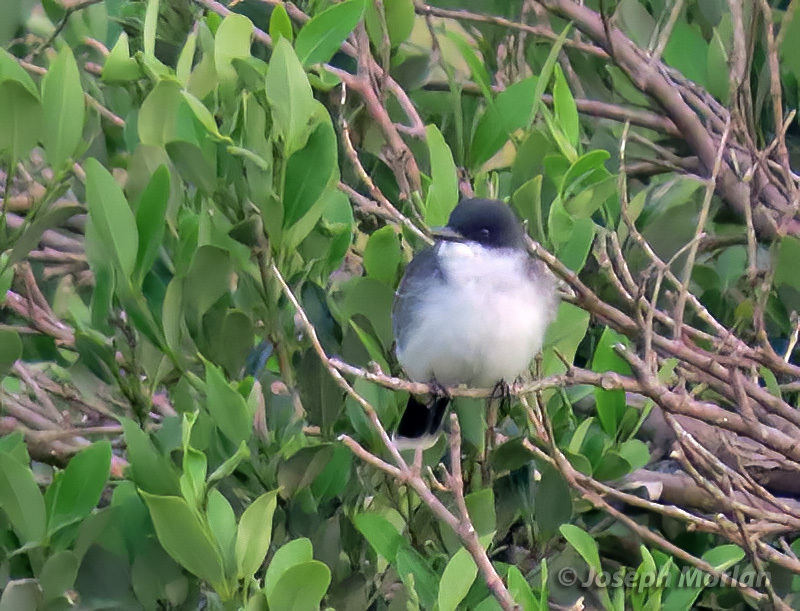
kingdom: Animalia
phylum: Chordata
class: Aves
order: Passeriformes
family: Tyrannidae
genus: Tyrannus
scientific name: Tyrannus tyrannus
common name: Eastern kingbird
